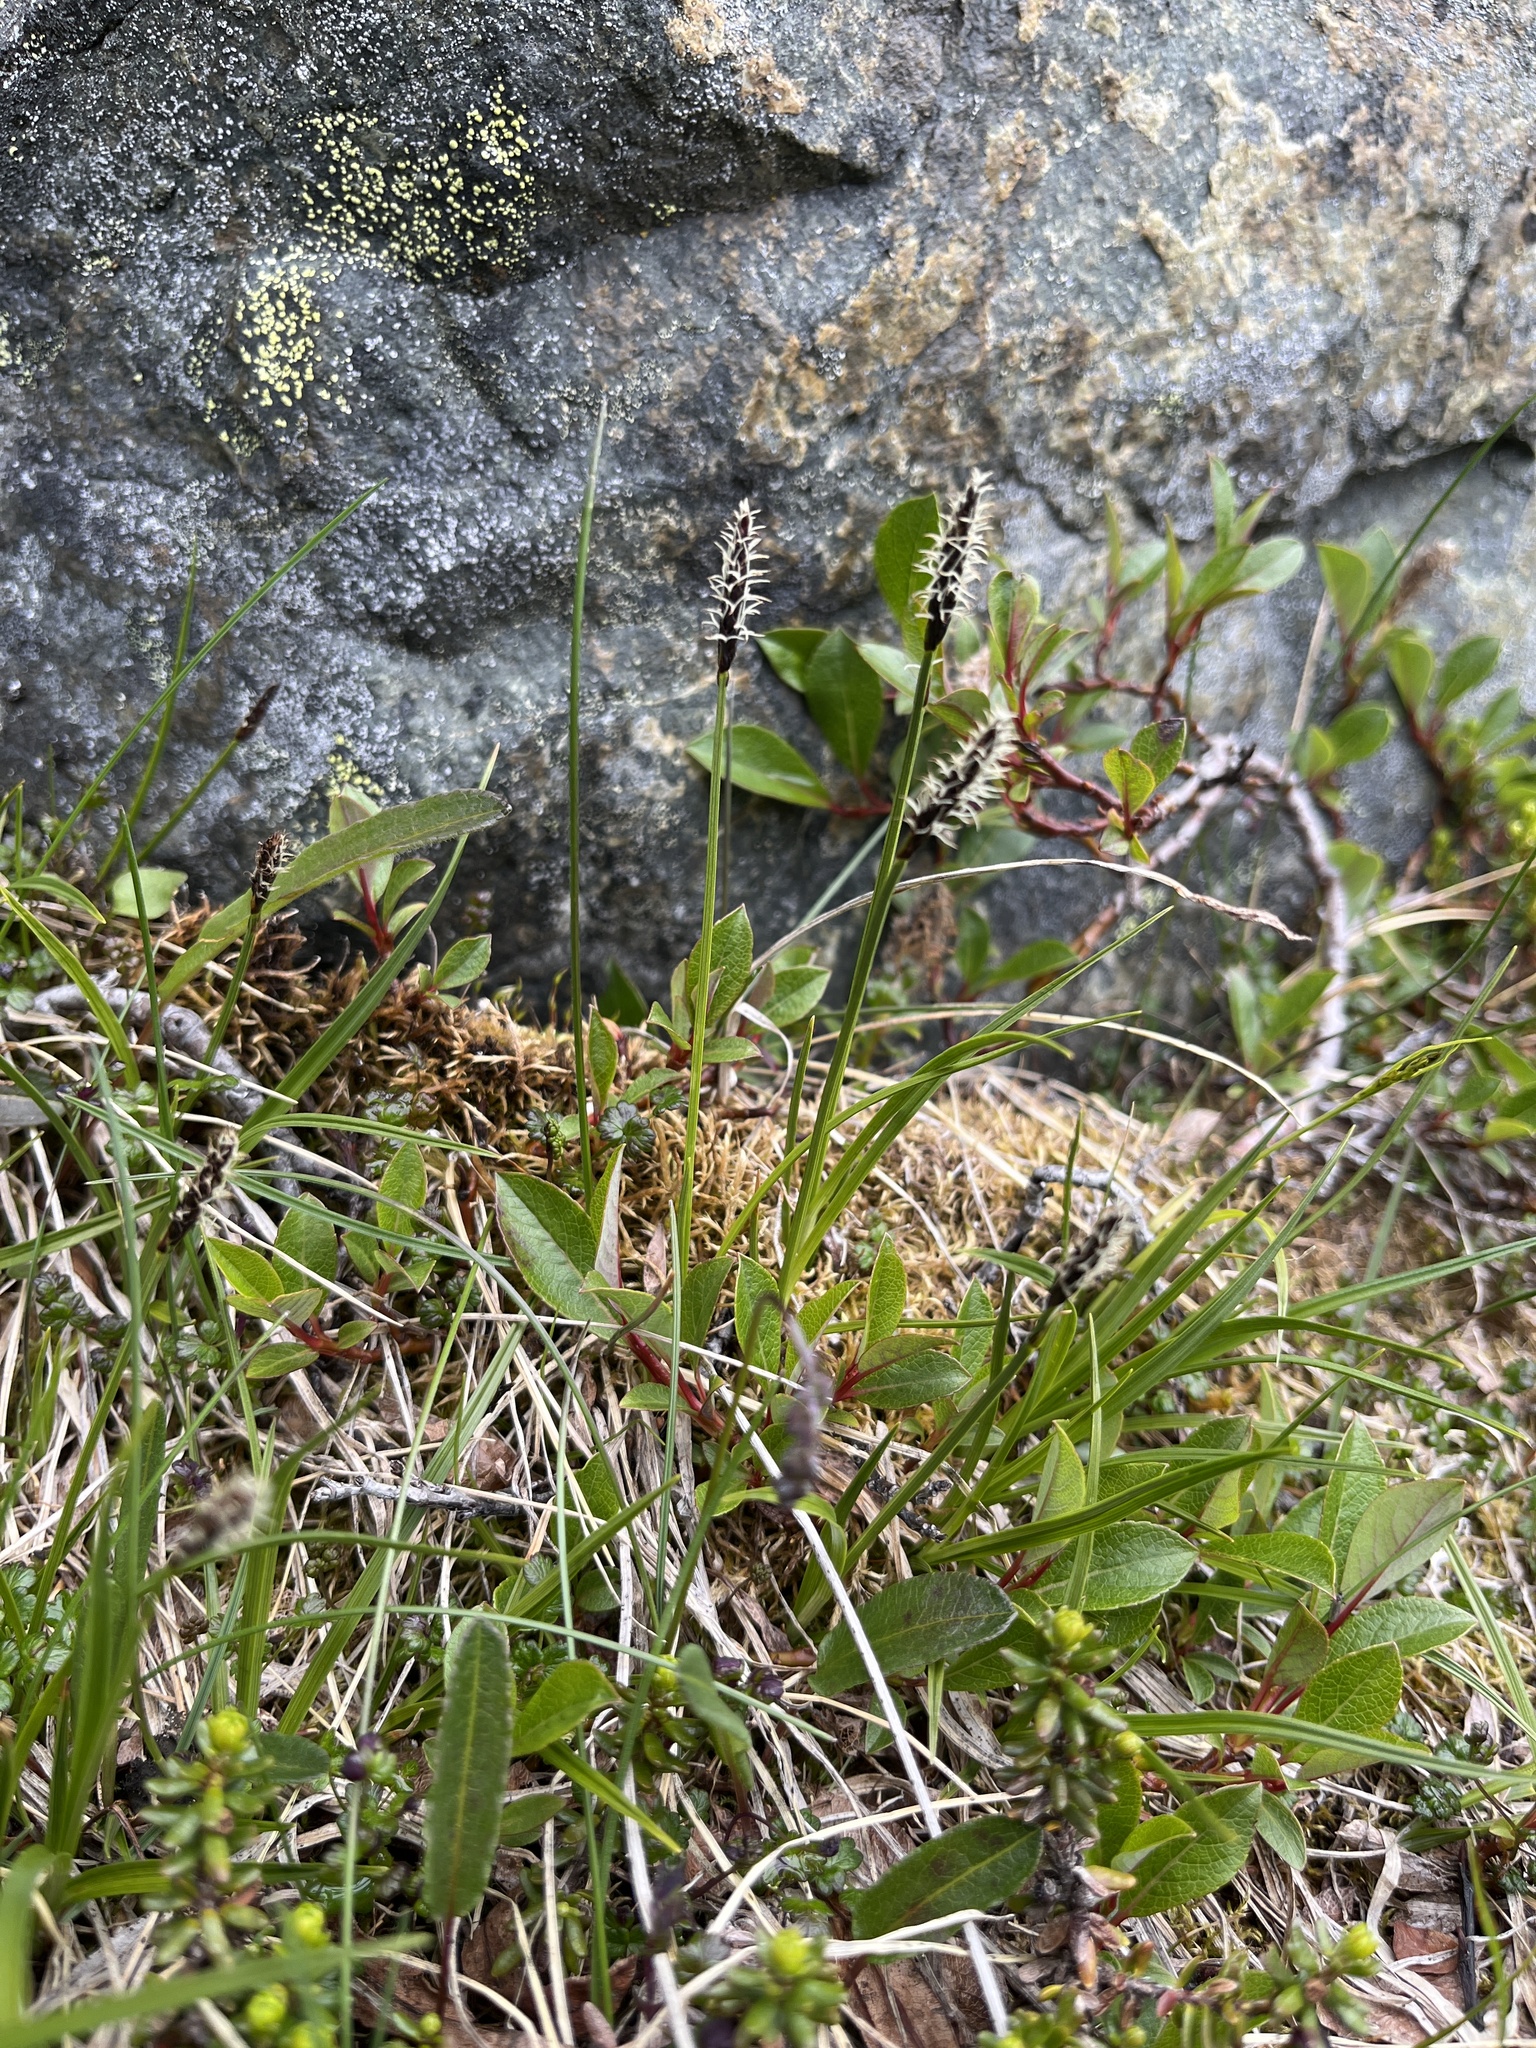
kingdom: Plantae
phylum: Tracheophyta
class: Liliopsida
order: Poales
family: Cyperaceae
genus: Carex
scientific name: Carex scirpoidea
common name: Canada single-spike sedge
